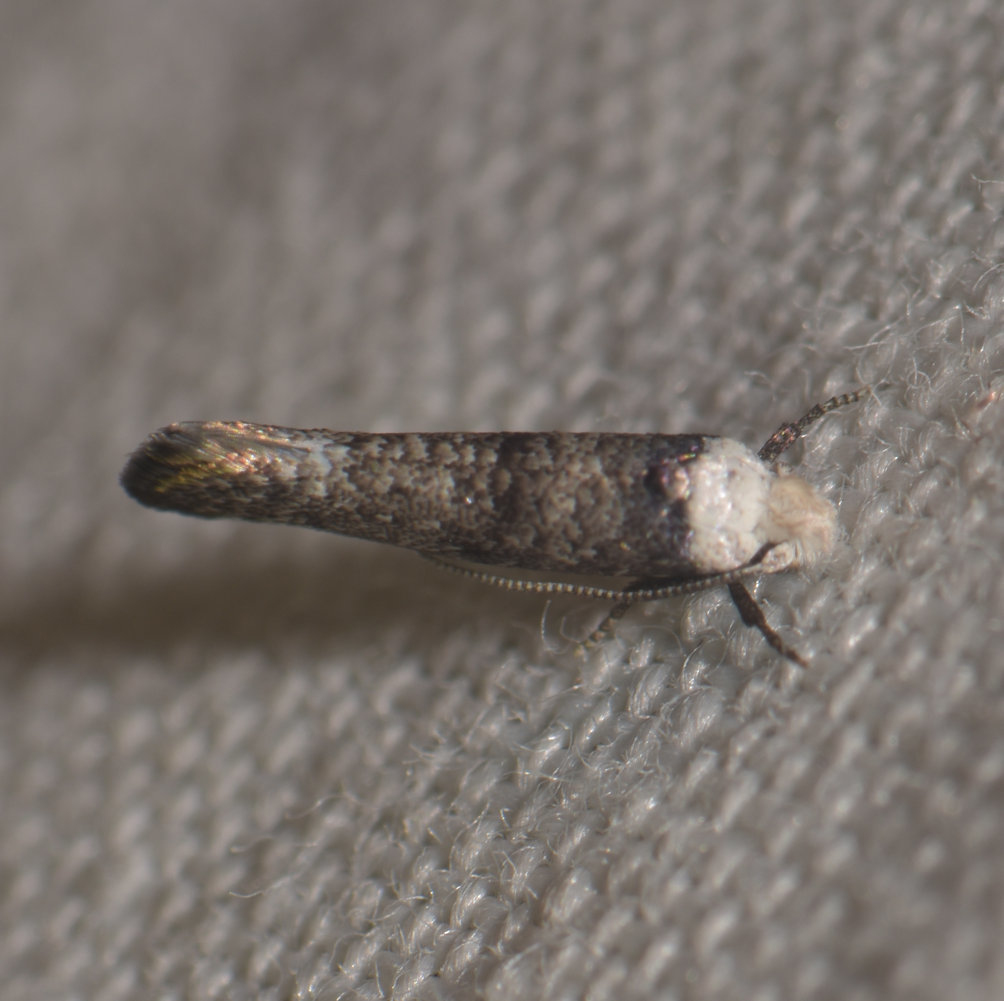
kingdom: Animalia
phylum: Arthropoda
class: Insecta
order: Lepidoptera
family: Yponomeutidae
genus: Swammerdamia
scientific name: Swammerdamia
